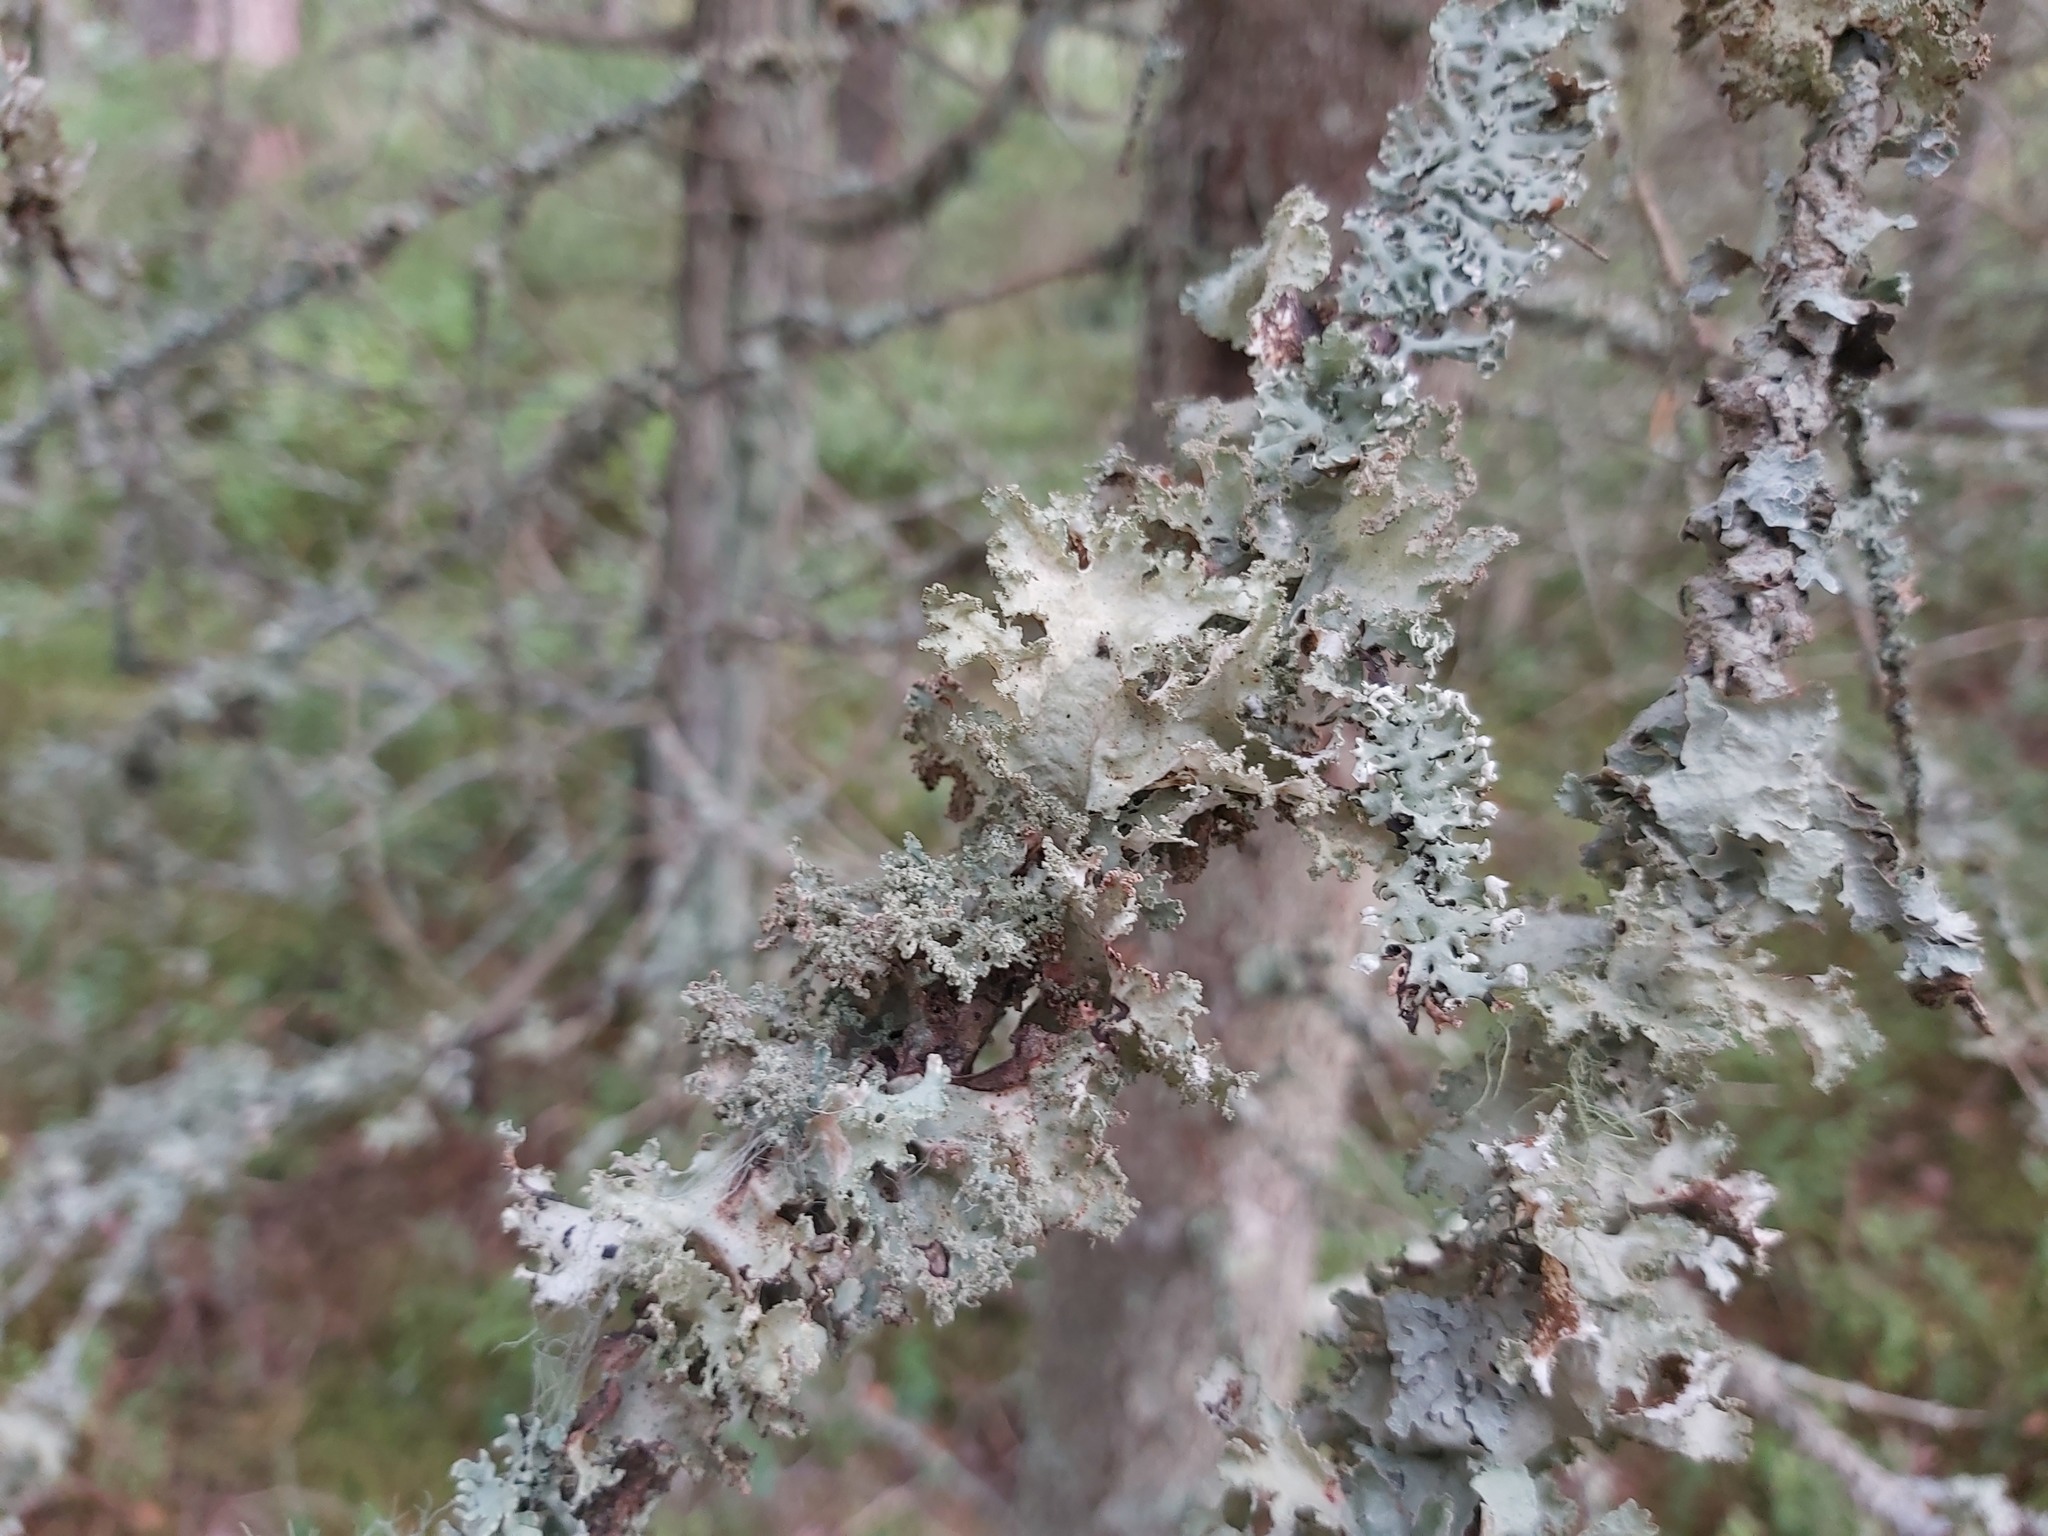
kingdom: Fungi
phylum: Ascomycota
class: Lecanoromycetes
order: Lecanorales
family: Parmeliaceae
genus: Platismatia
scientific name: Platismatia glauca
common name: Varied rag lichen
